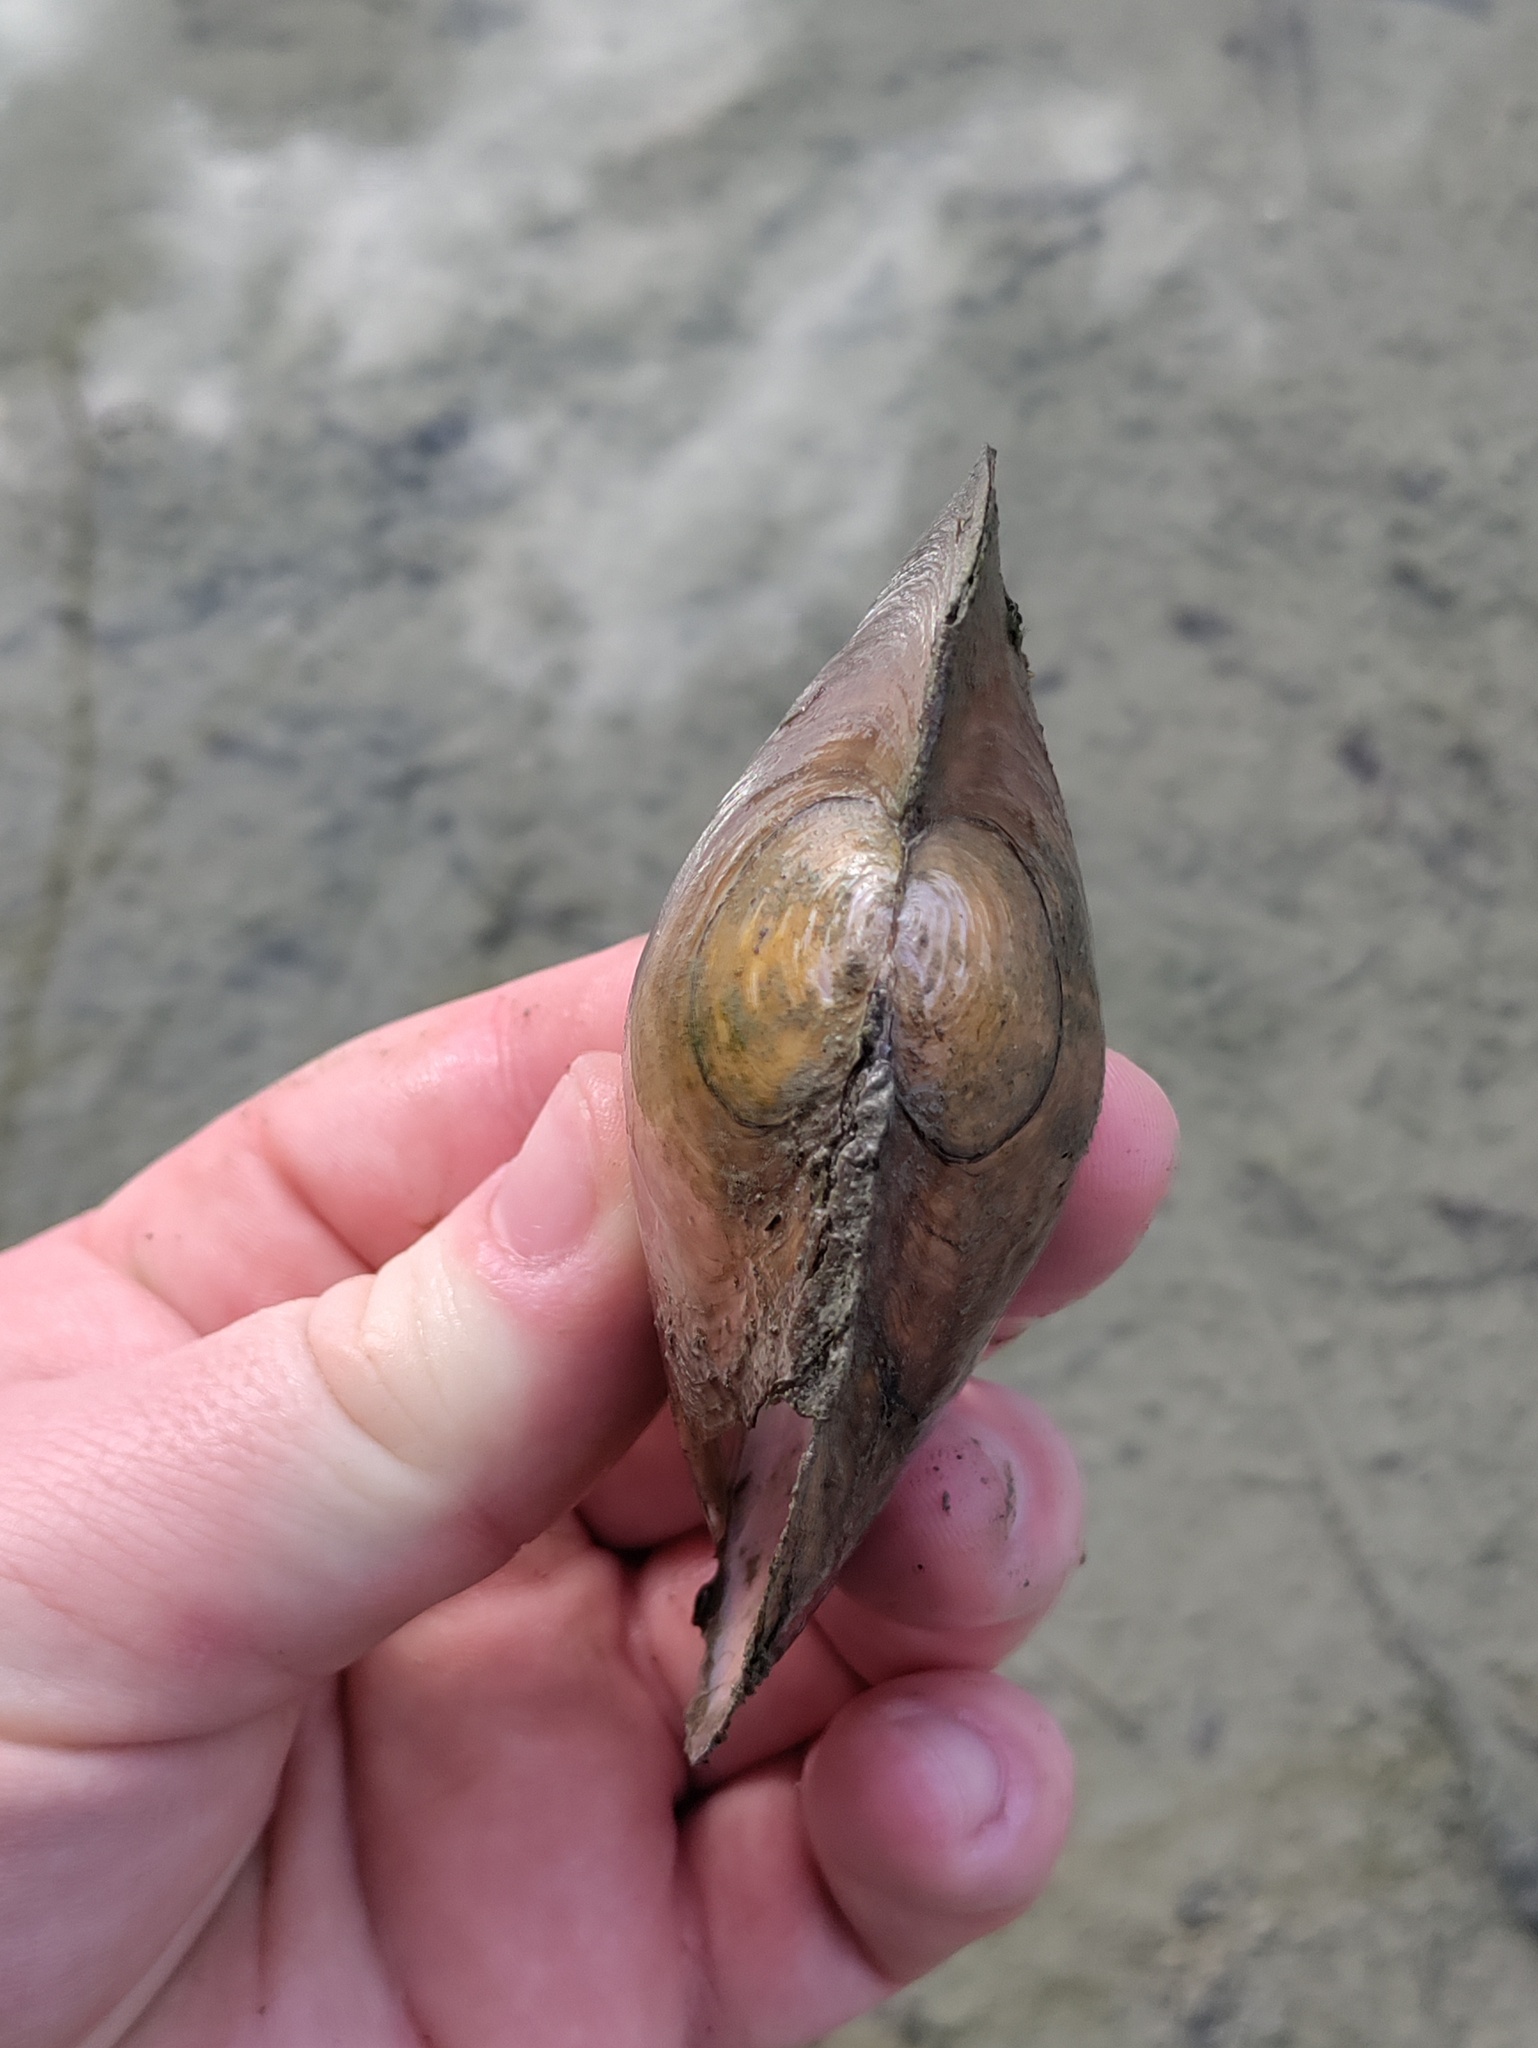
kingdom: Animalia
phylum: Mollusca
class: Bivalvia
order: Unionida
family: Unionidae
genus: Sinanodonta
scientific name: Sinanodonta woodiana
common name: Chinese pond mussel
